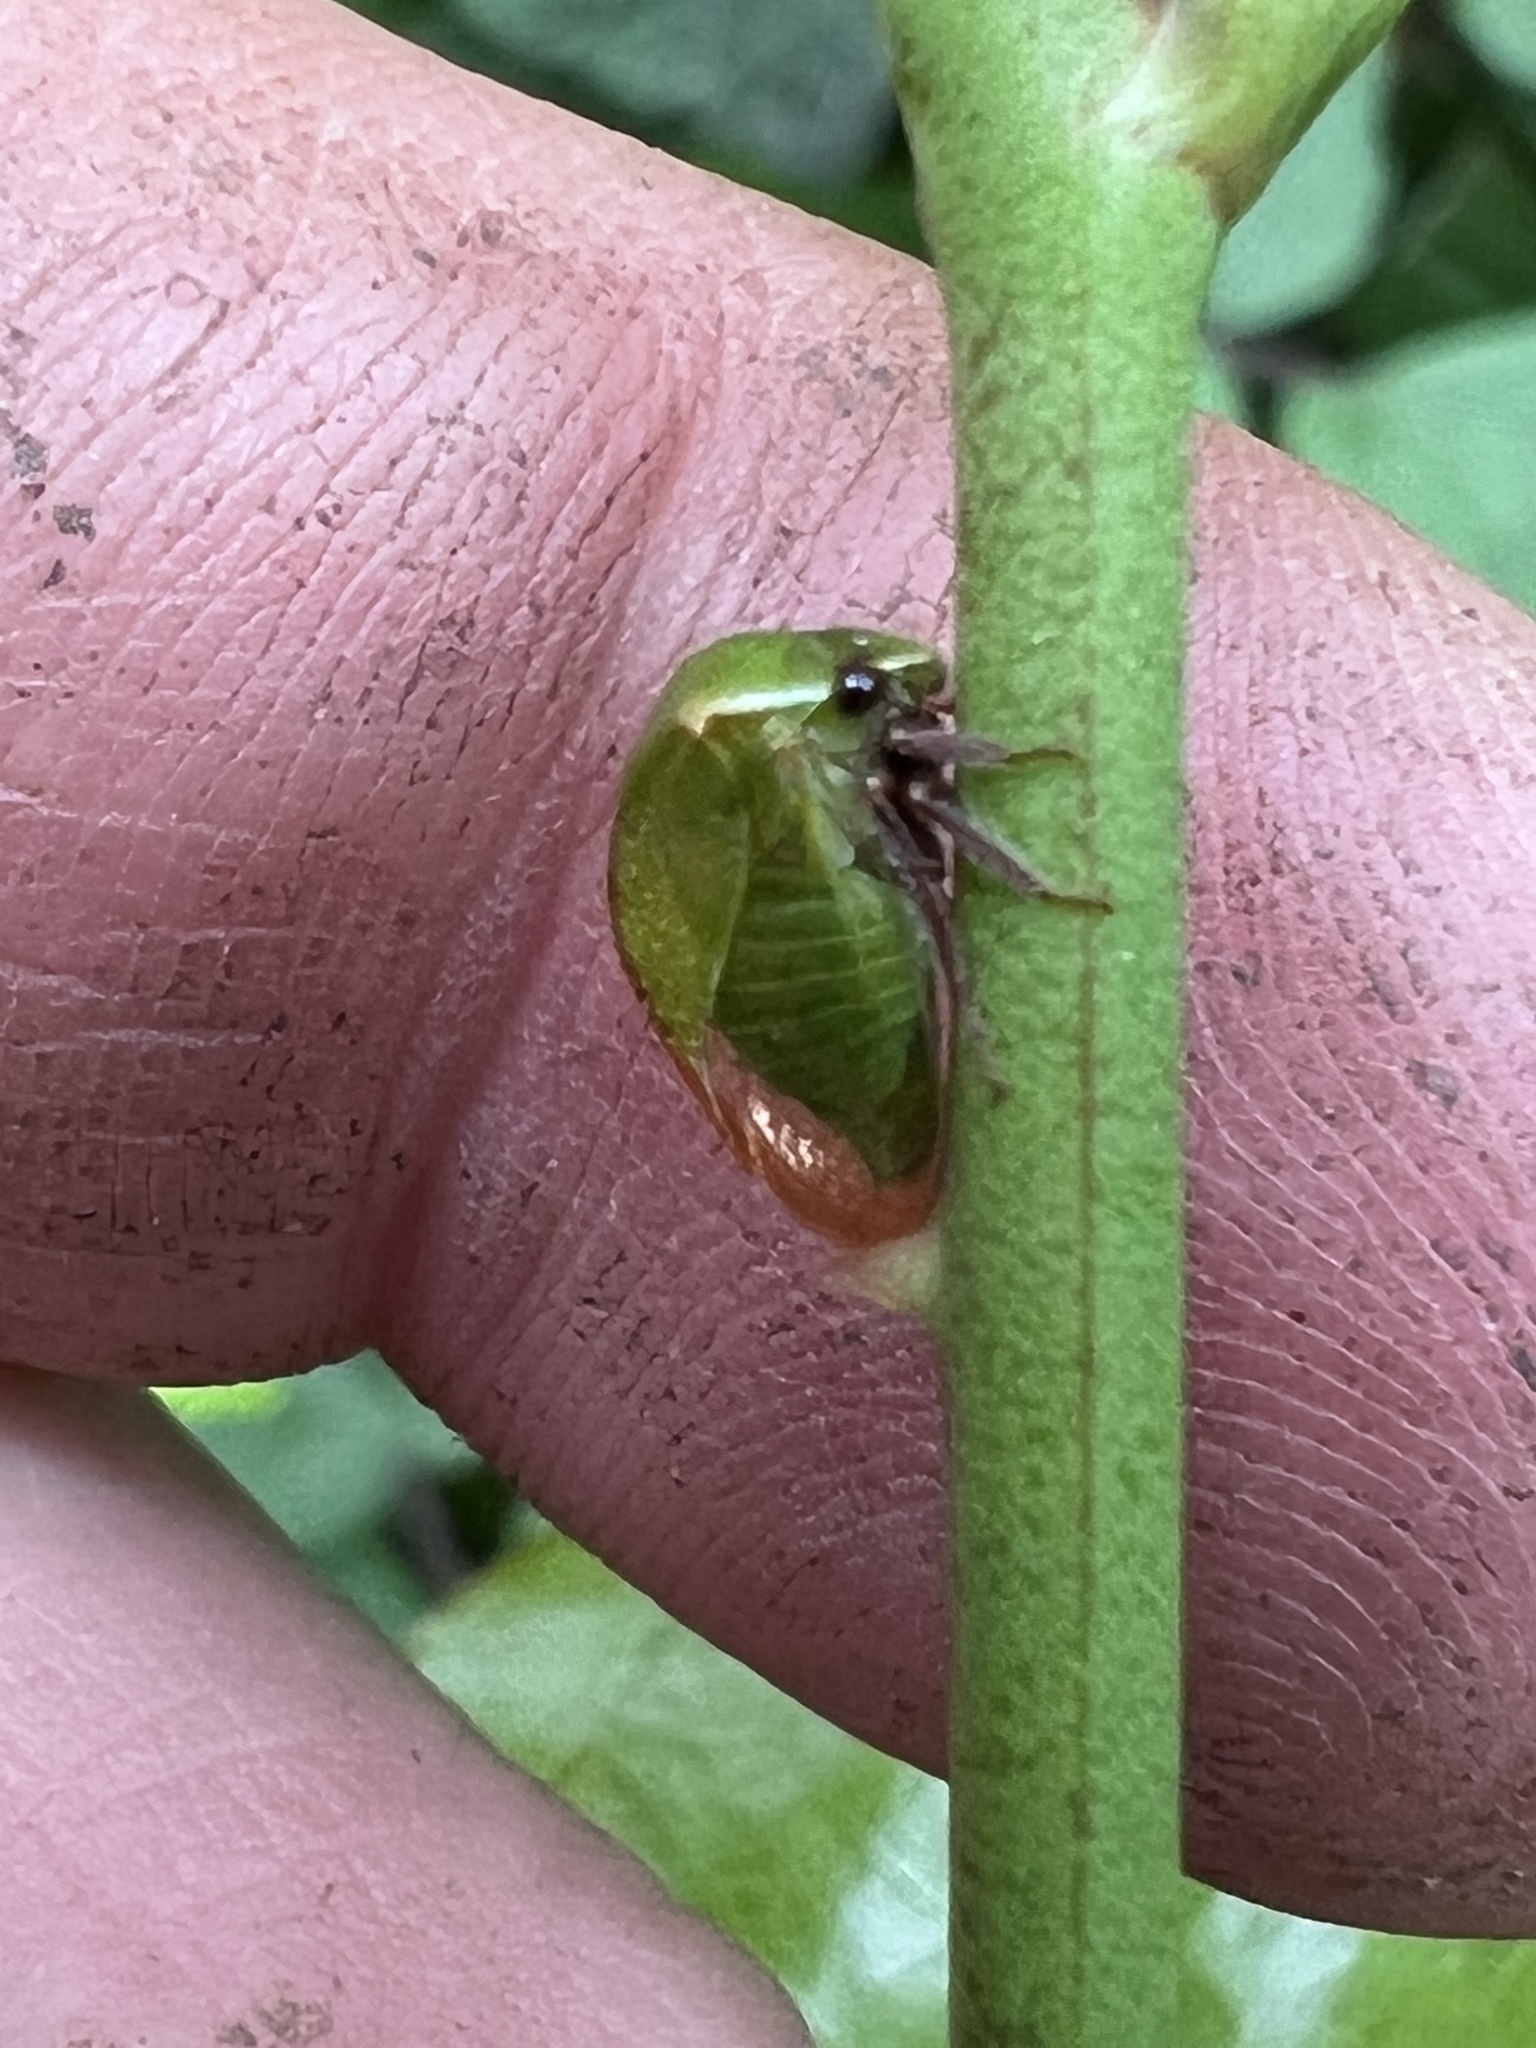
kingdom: Animalia
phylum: Arthropoda
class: Insecta
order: Hemiptera
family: Membracidae
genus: Stictocephala
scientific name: Stictocephala brevitylus
